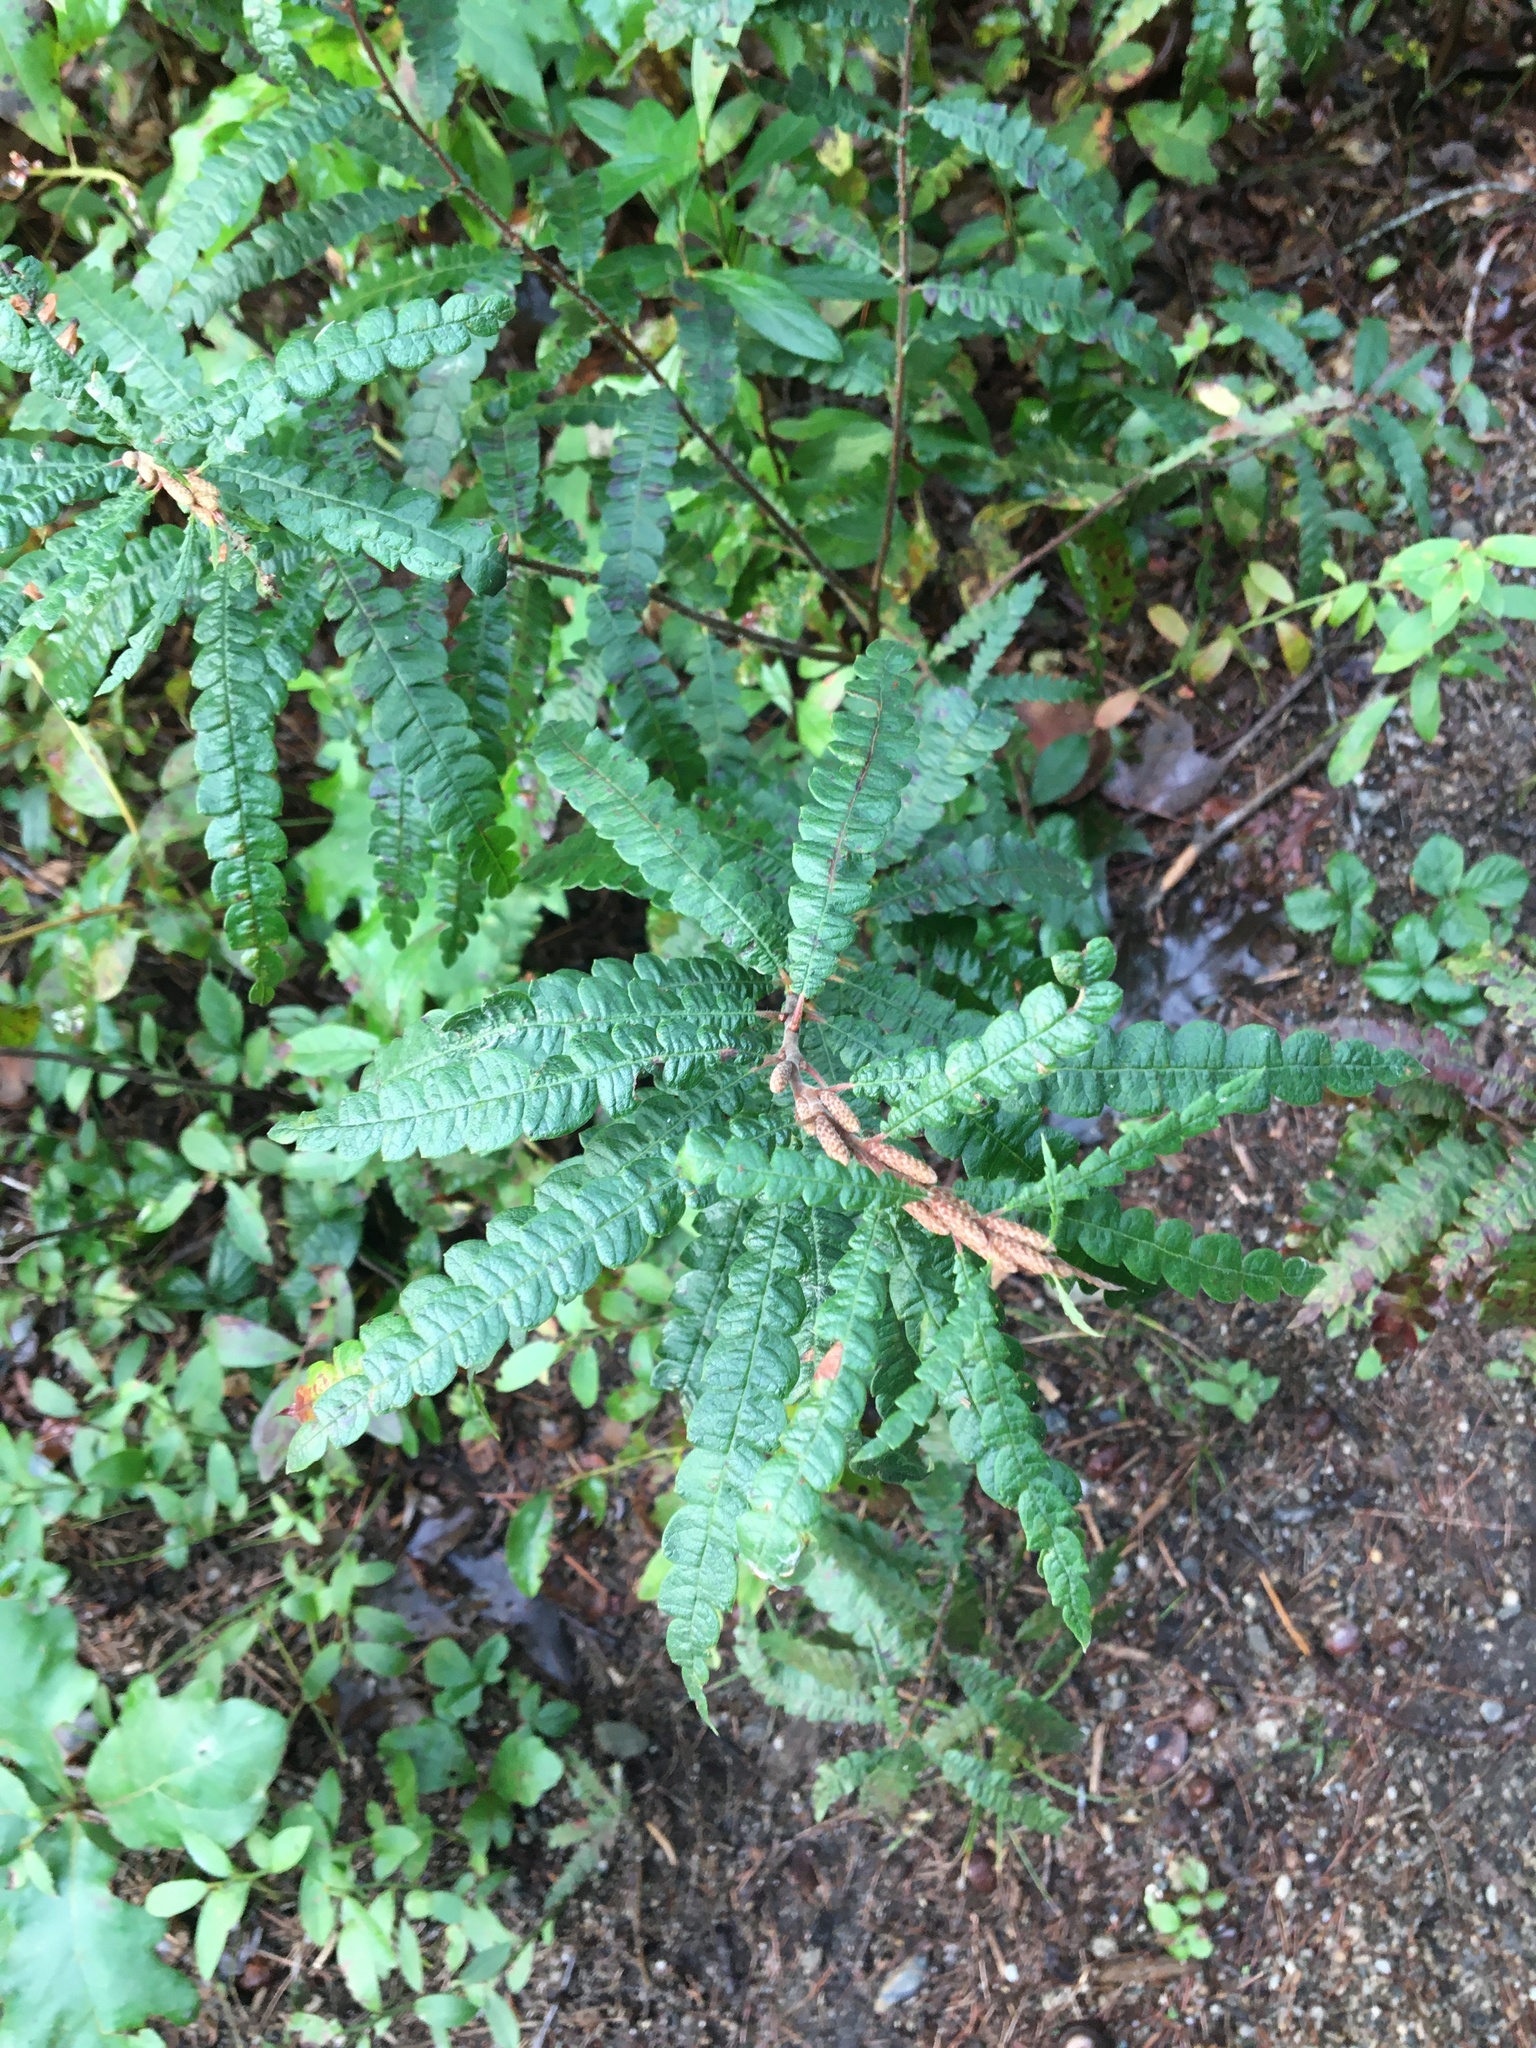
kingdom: Plantae
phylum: Tracheophyta
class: Magnoliopsida
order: Fagales
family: Myricaceae
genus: Comptonia
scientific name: Comptonia peregrina
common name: Sweet-fern
